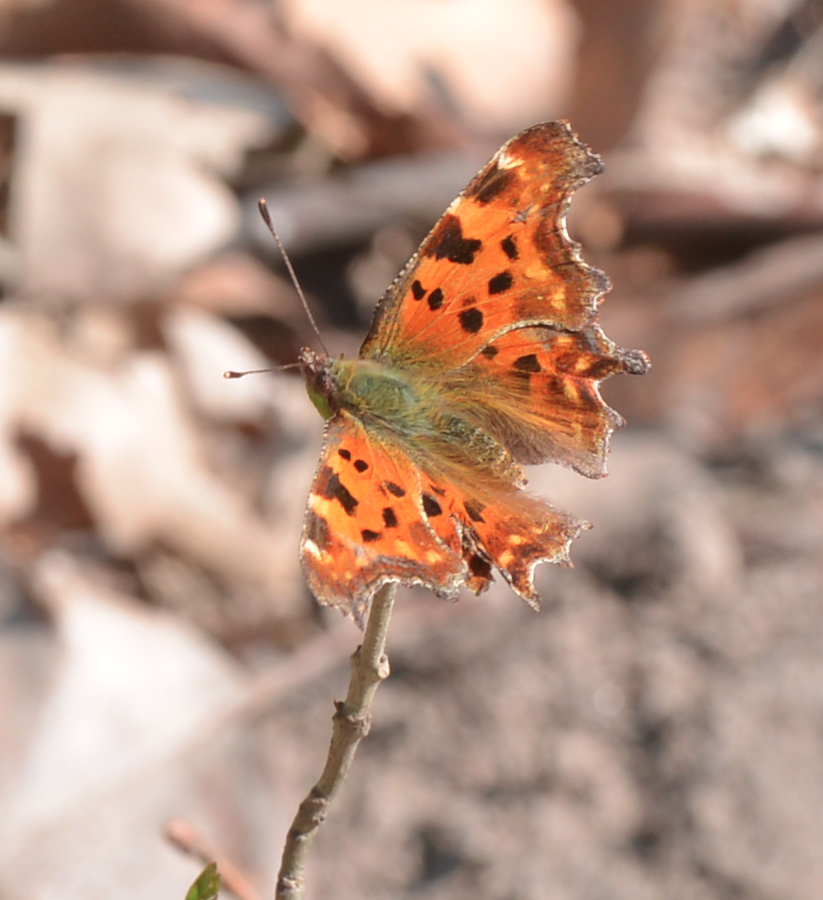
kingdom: Animalia
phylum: Arthropoda
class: Insecta
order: Lepidoptera
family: Nymphalidae
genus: Polygonia
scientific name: Polygonia c-album
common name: Comma
